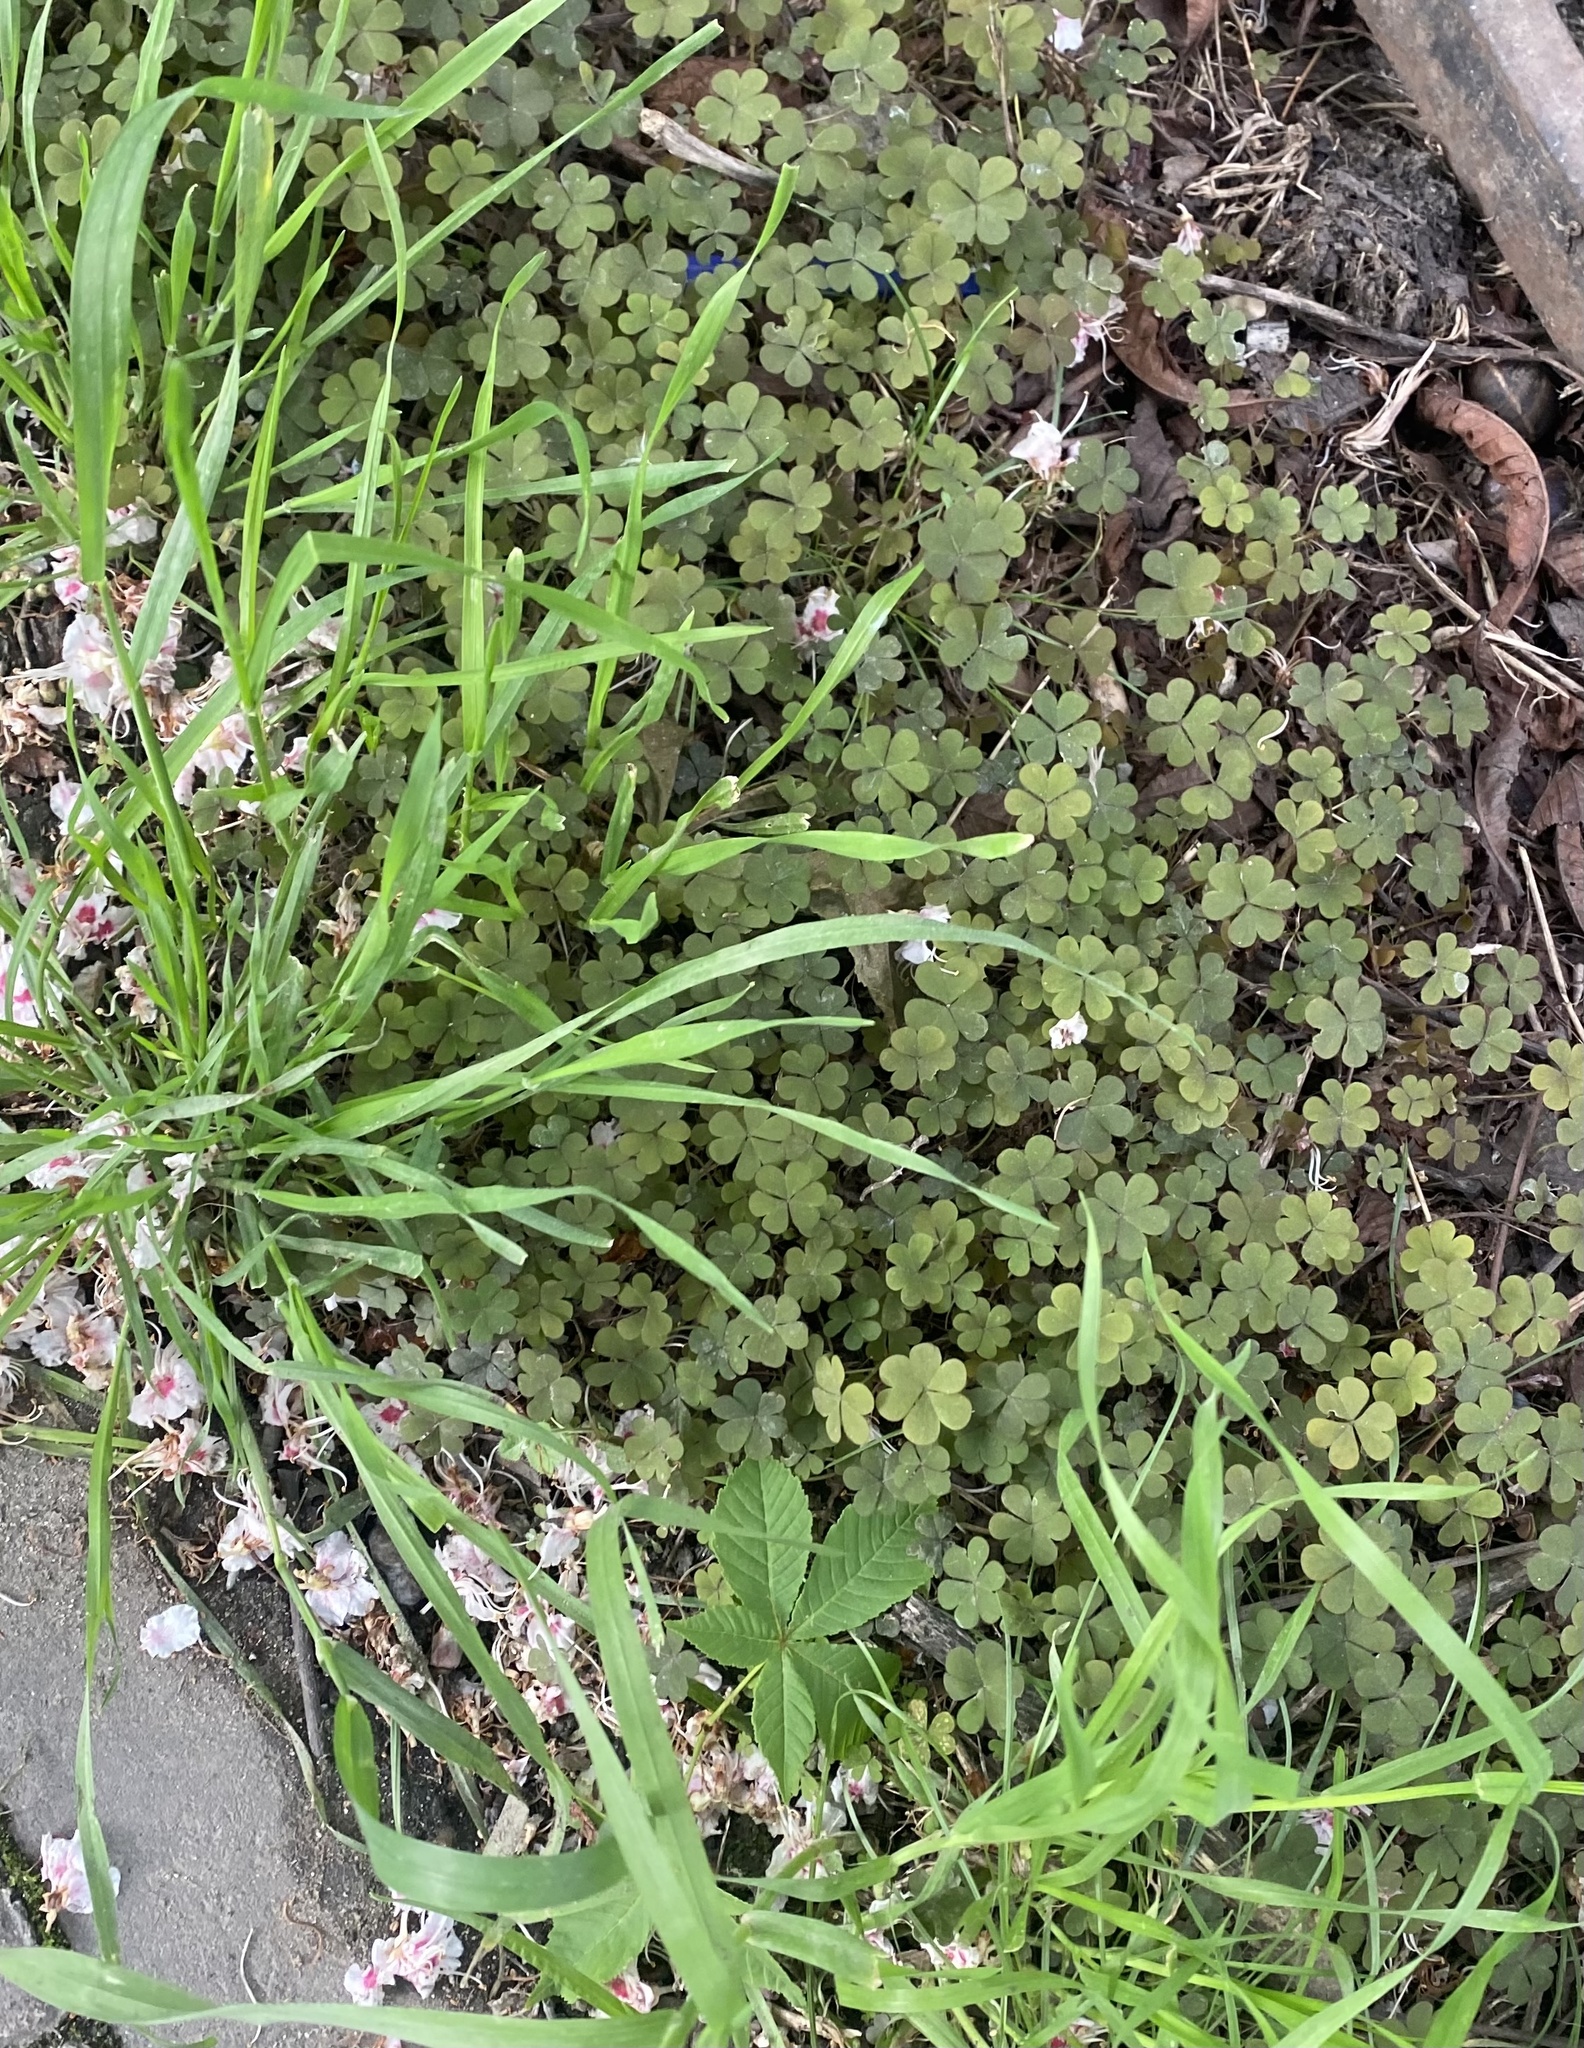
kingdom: Plantae
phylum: Tracheophyta
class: Magnoliopsida
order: Oxalidales
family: Oxalidaceae
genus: Oxalis
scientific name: Oxalis corniculata
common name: Procumbent yellow-sorrel
